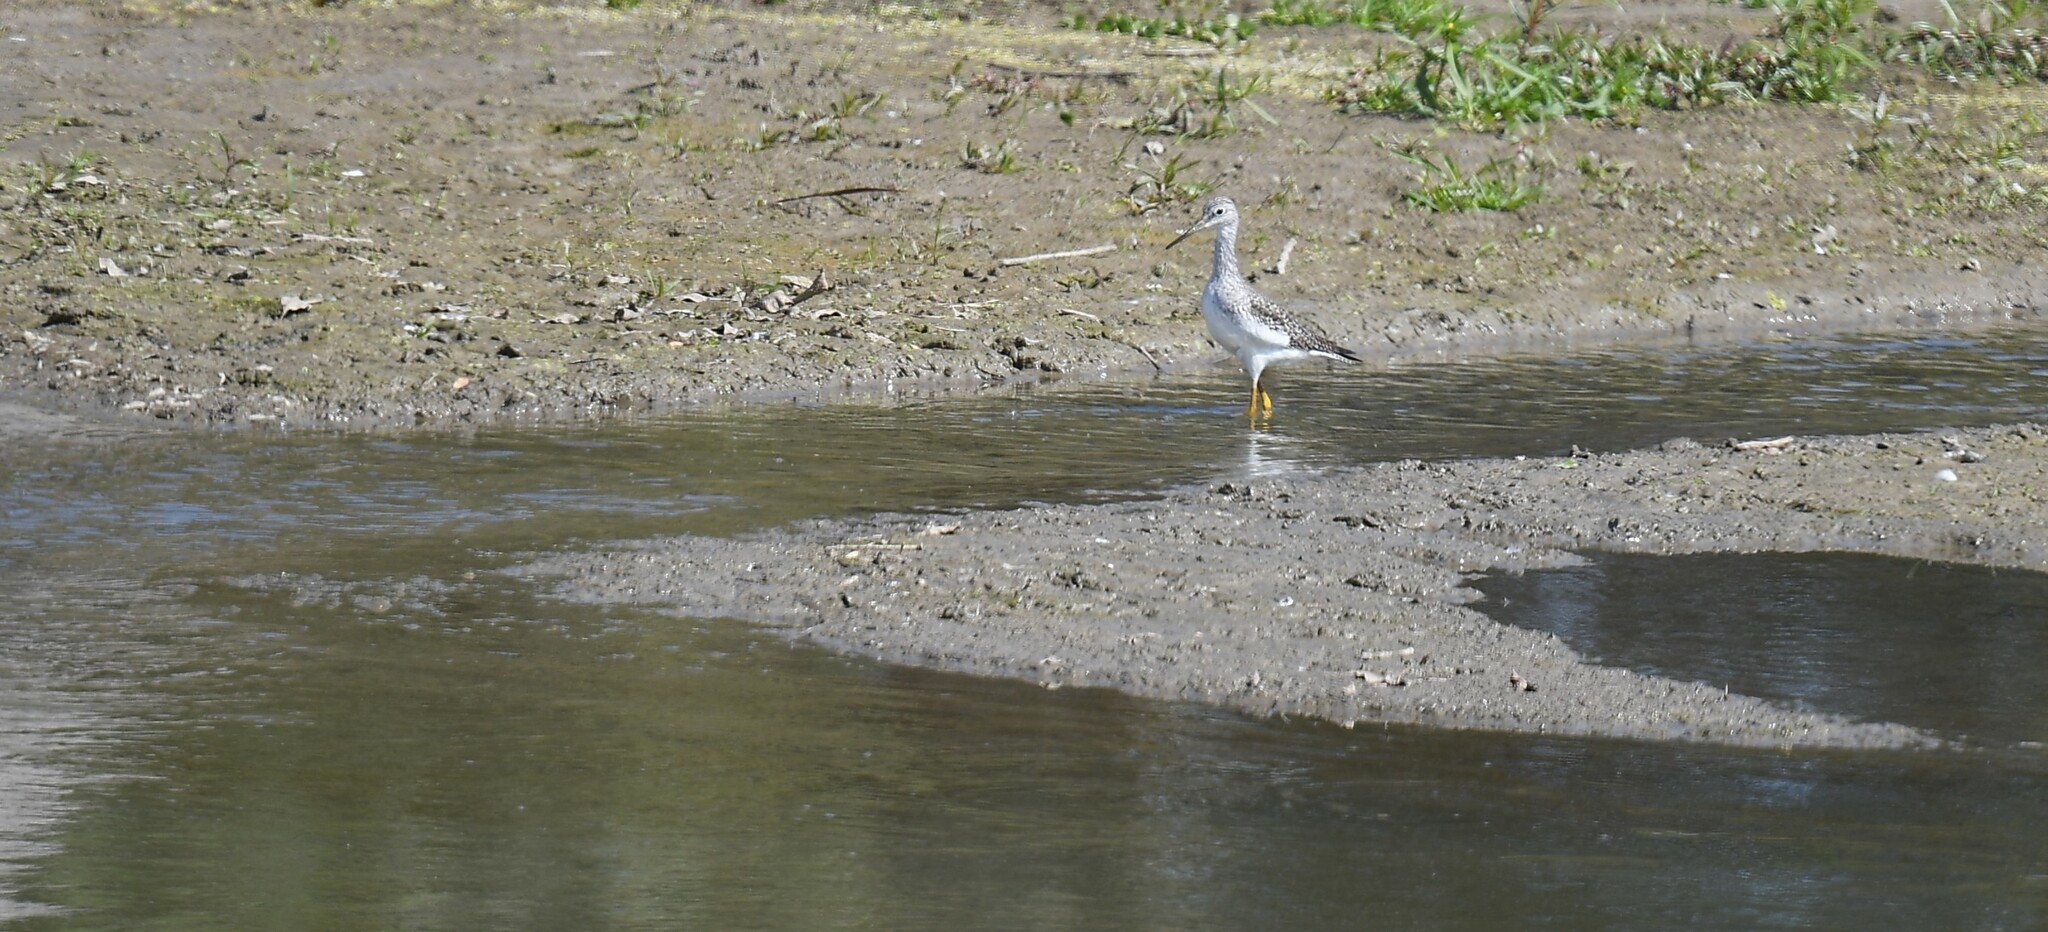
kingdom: Animalia
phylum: Chordata
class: Aves
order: Charadriiformes
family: Scolopacidae
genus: Tringa
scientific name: Tringa melanoleuca
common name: Greater yellowlegs
